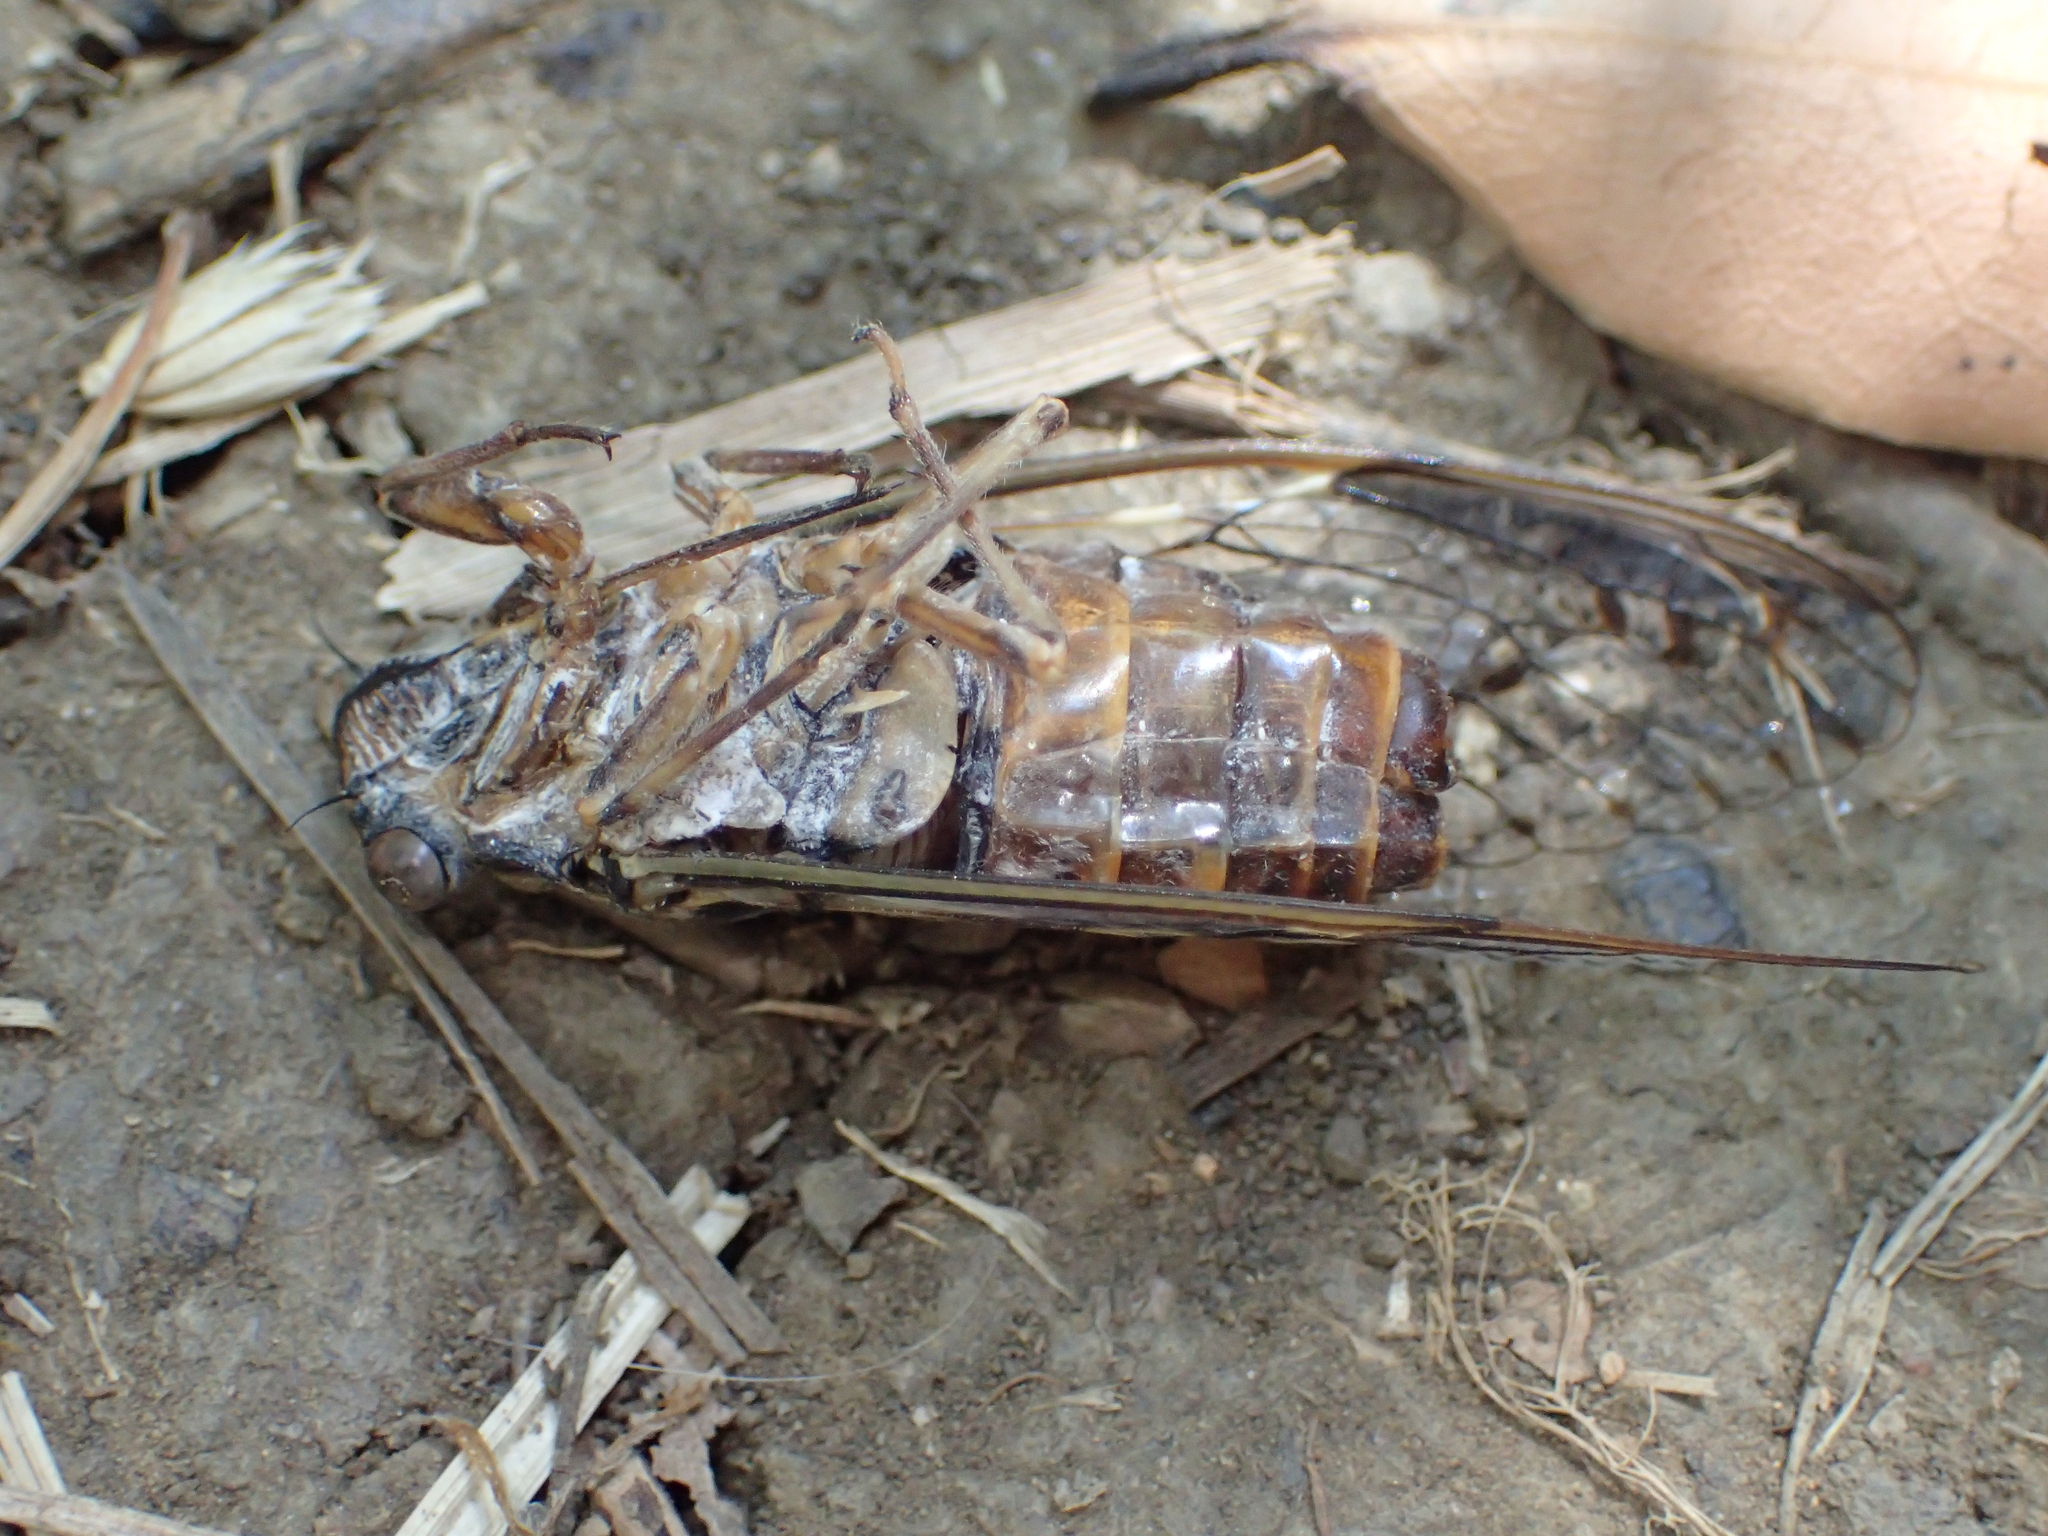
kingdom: Animalia
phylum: Arthropoda
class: Insecta
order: Hemiptera
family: Cicadidae
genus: Cicada
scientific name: Cicada orni
